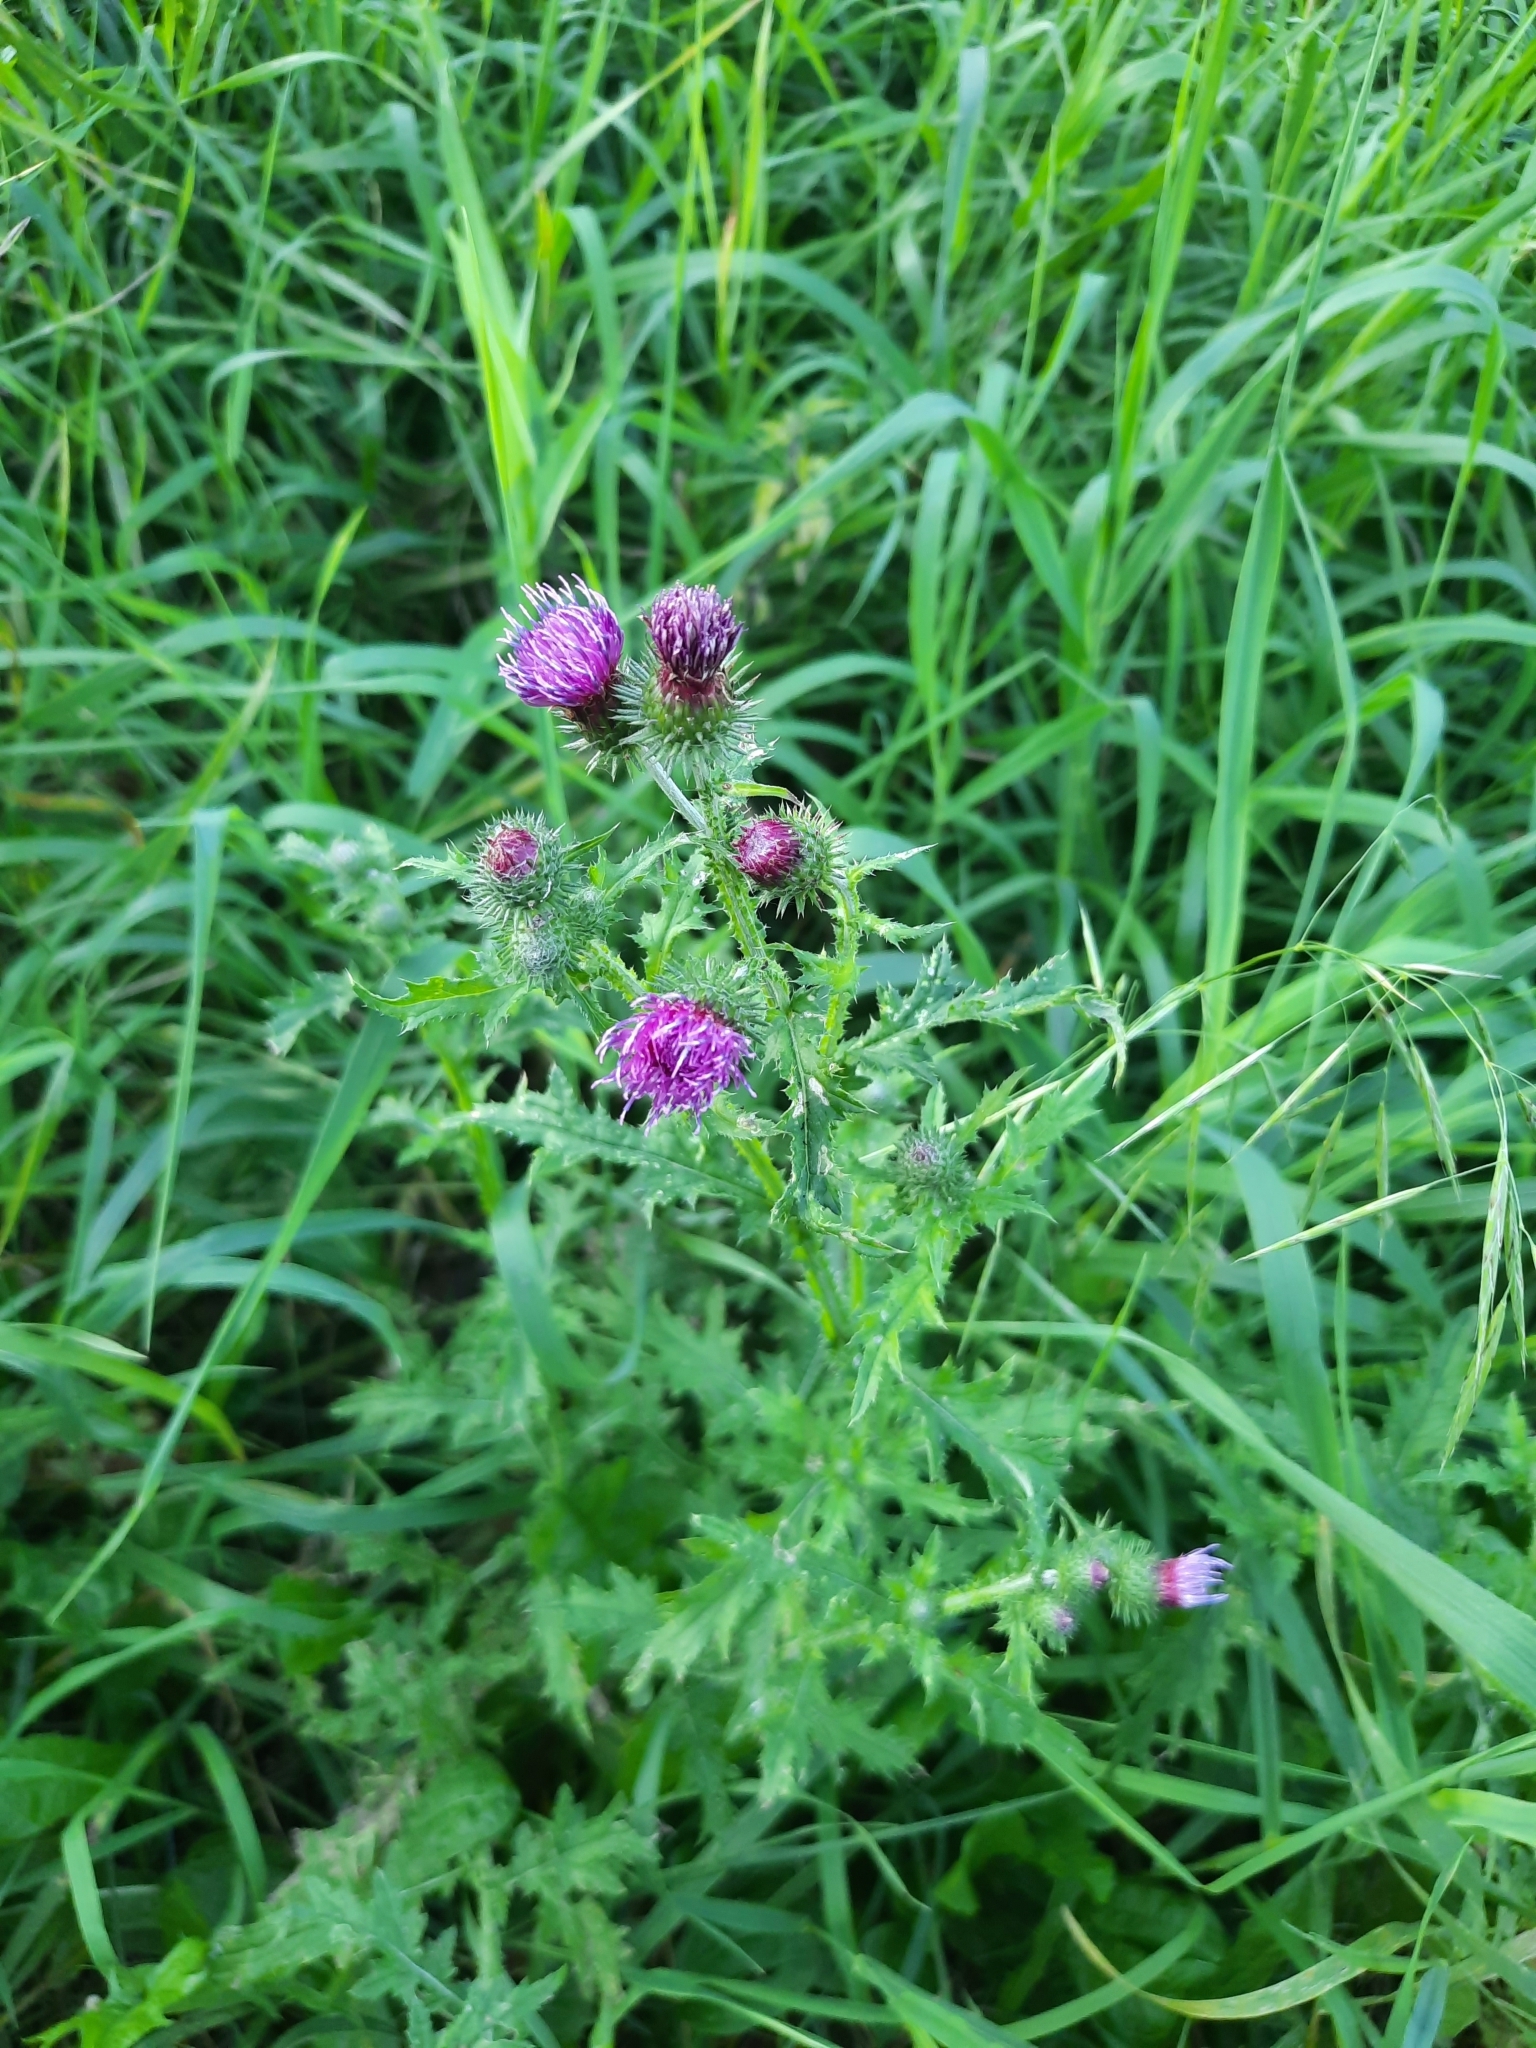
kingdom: Plantae
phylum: Tracheophyta
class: Magnoliopsida
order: Asterales
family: Asteraceae
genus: Carduus
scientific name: Carduus crispus
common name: Welted thistle
